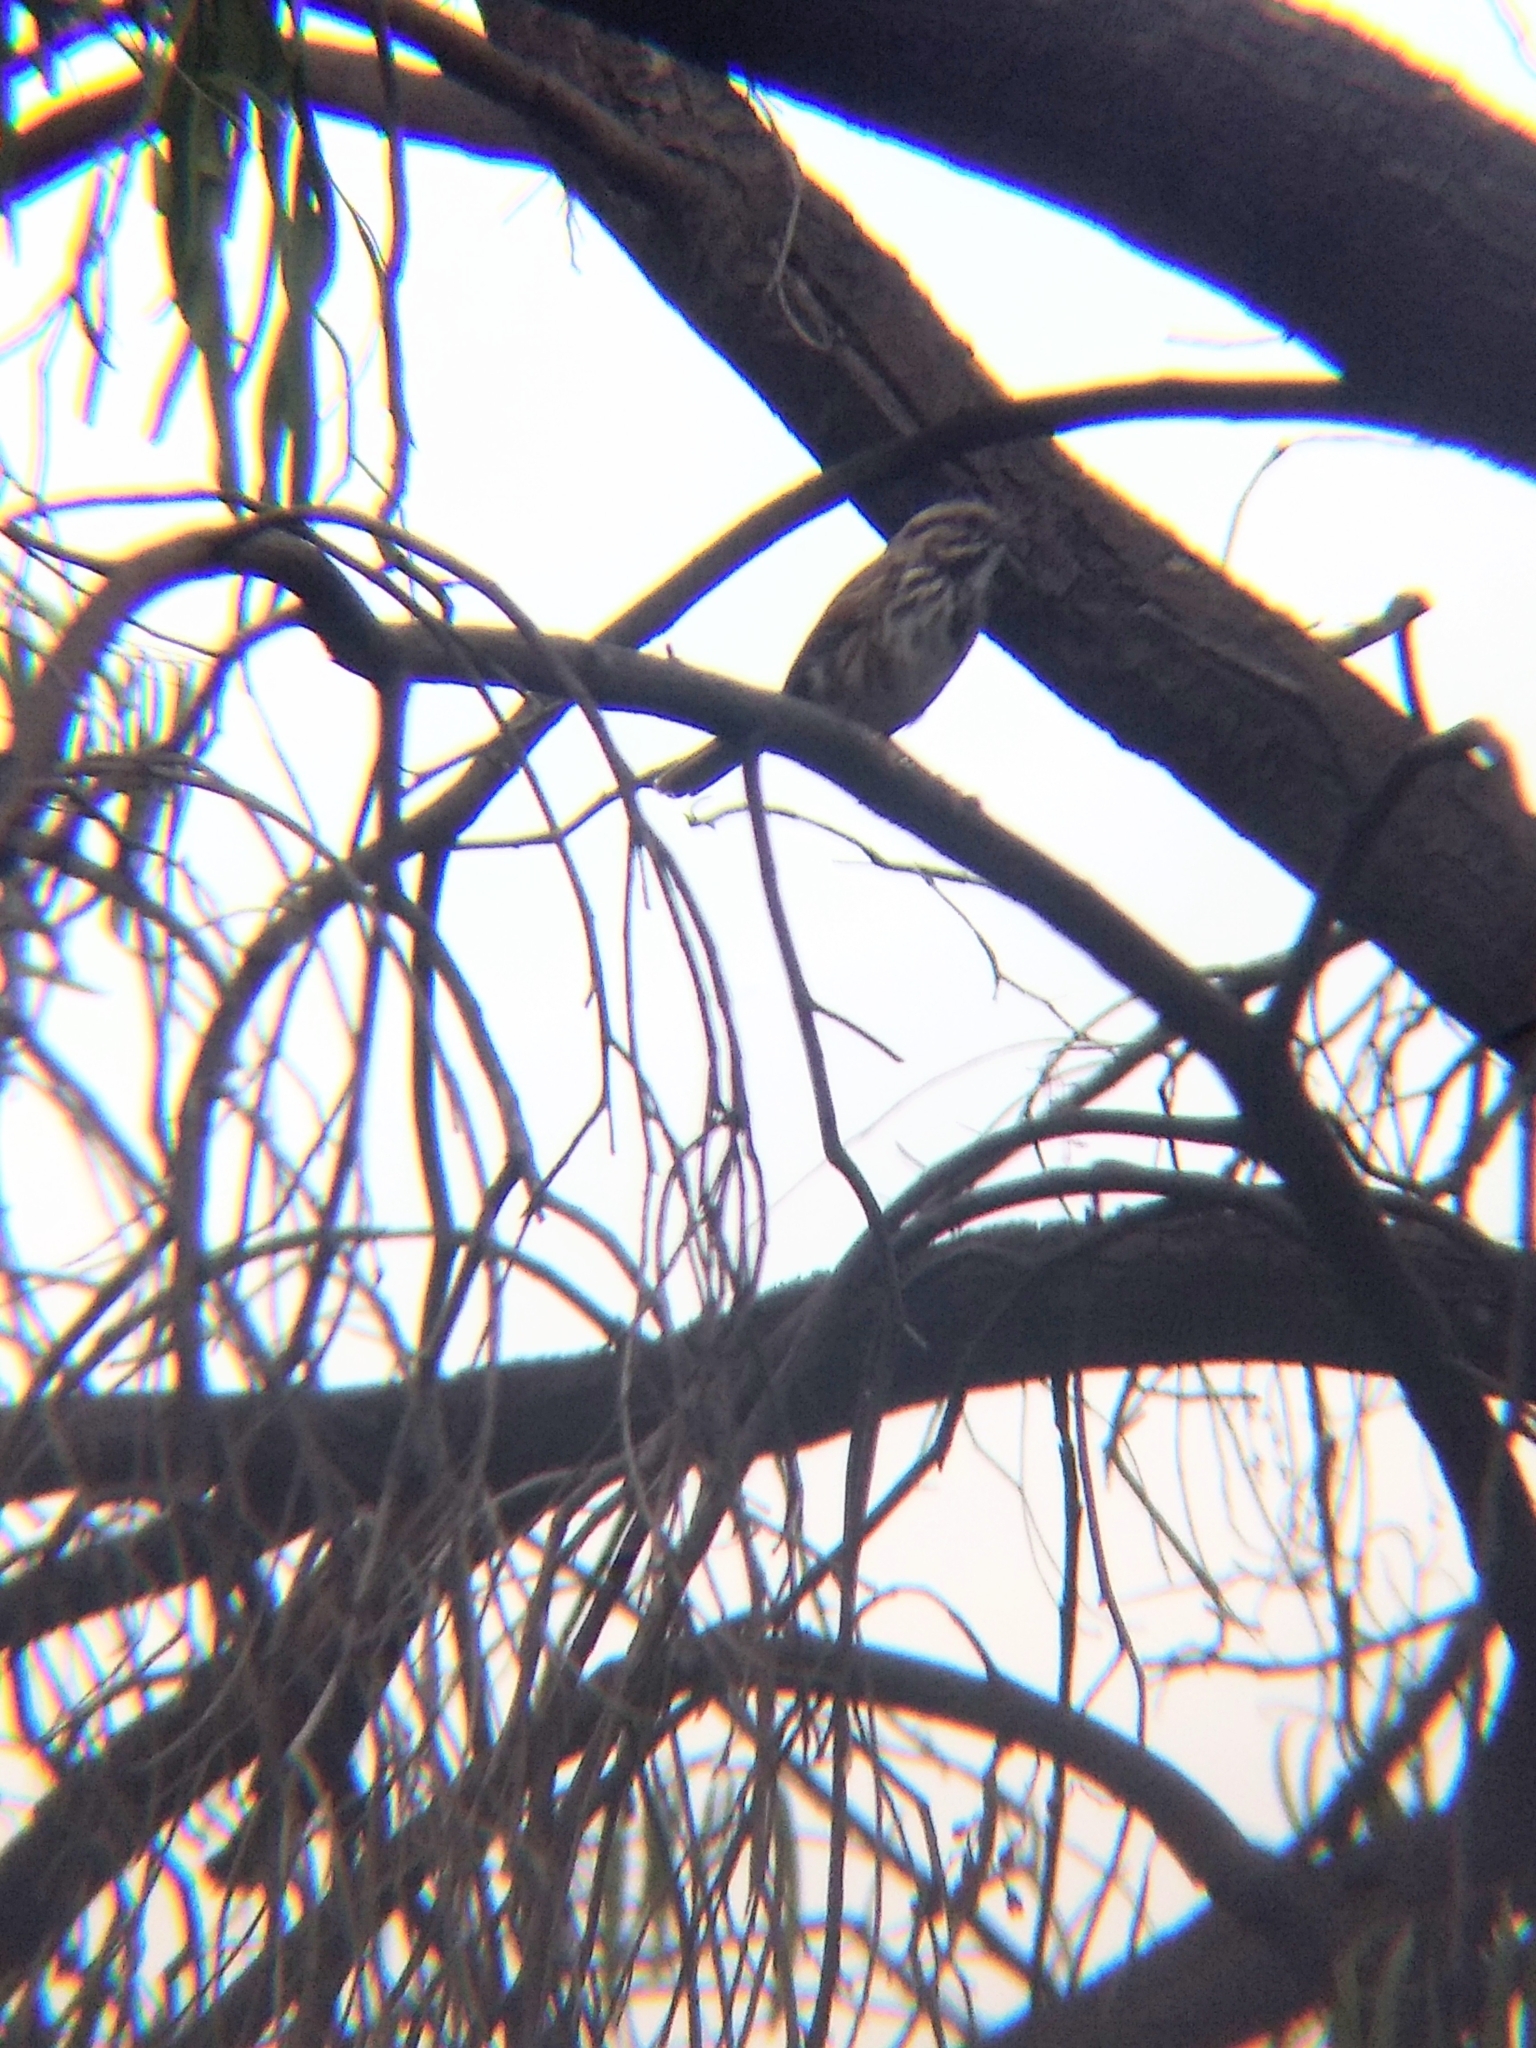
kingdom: Animalia
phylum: Chordata
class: Aves
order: Passeriformes
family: Passerellidae
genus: Melospiza
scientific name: Melospiza melodia
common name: Song sparrow
